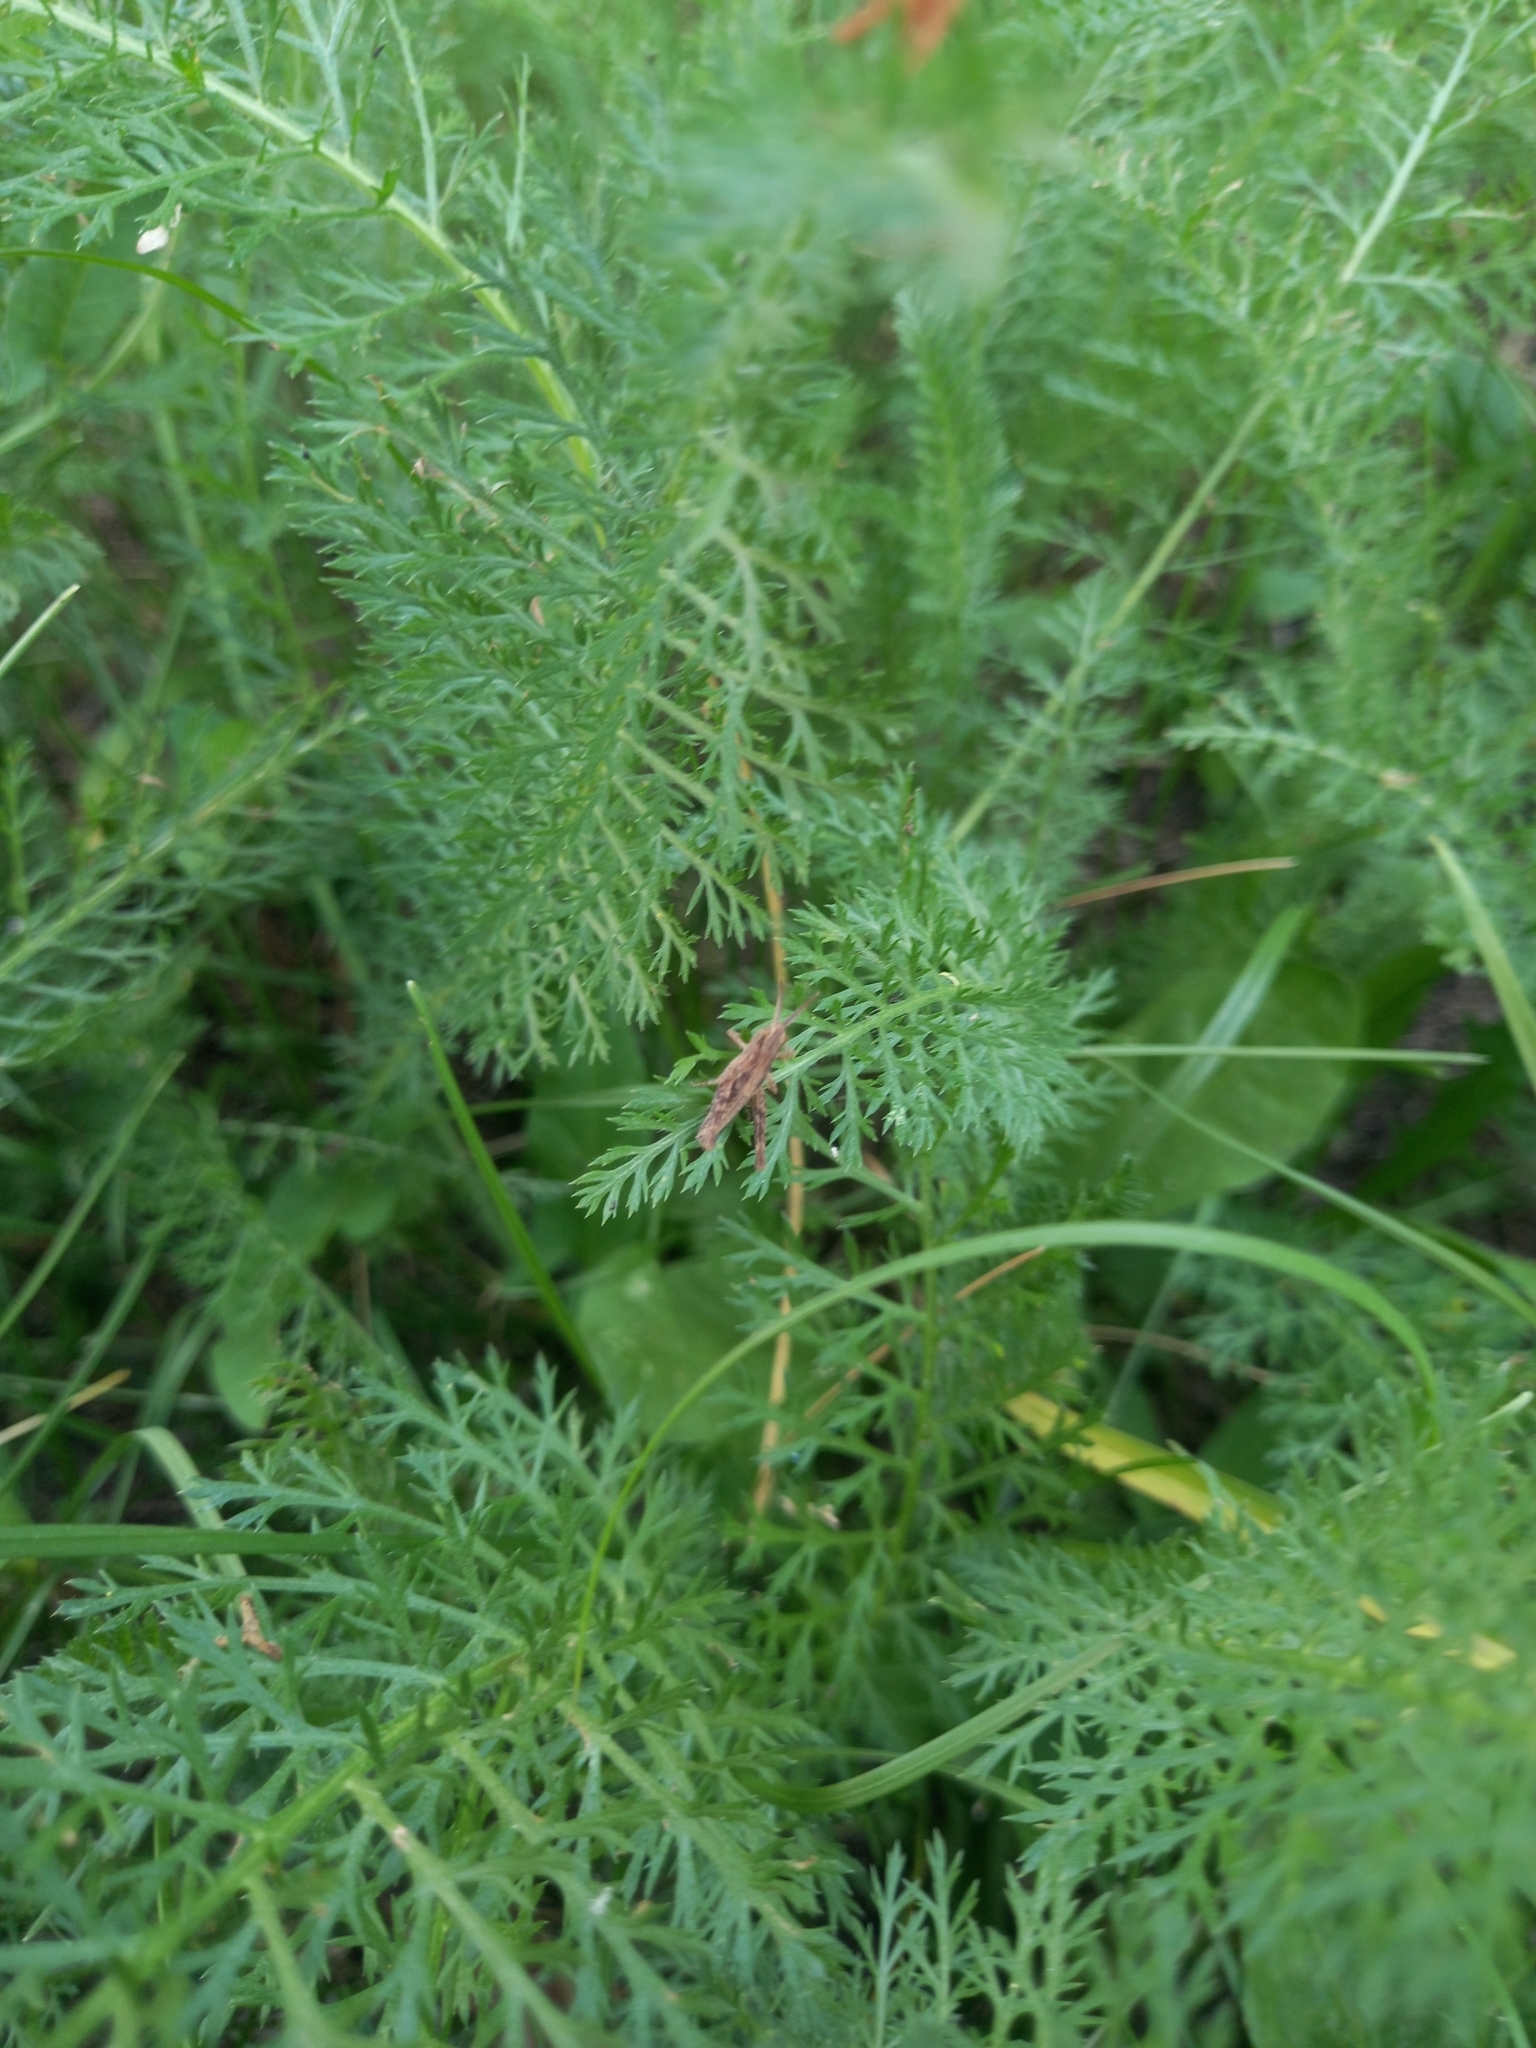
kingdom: Plantae
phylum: Tracheophyta
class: Magnoliopsida
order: Asterales
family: Asteraceae
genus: Achillea
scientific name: Achillea millefolium
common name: Yarrow
